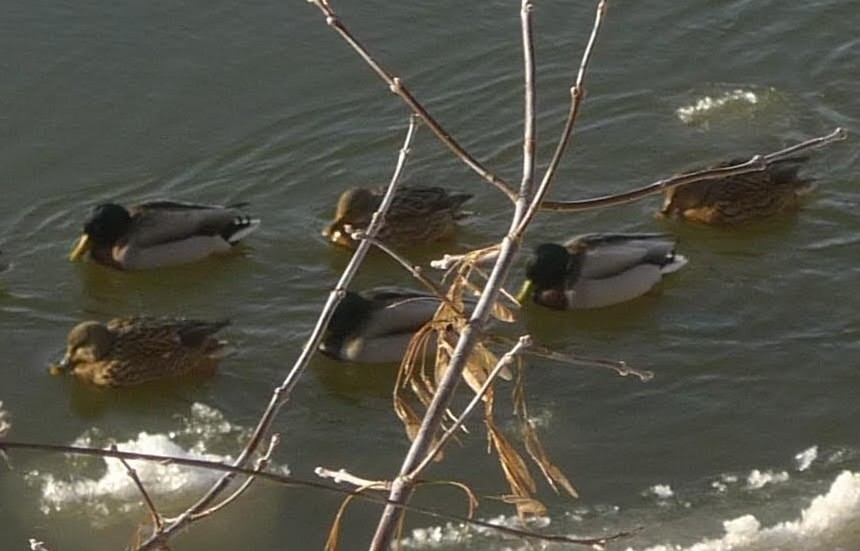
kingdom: Animalia
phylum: Chordata
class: Aves
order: Anseriformes
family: Anatidae
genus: Anas
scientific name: Anas platyrhynchos
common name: Mallard
